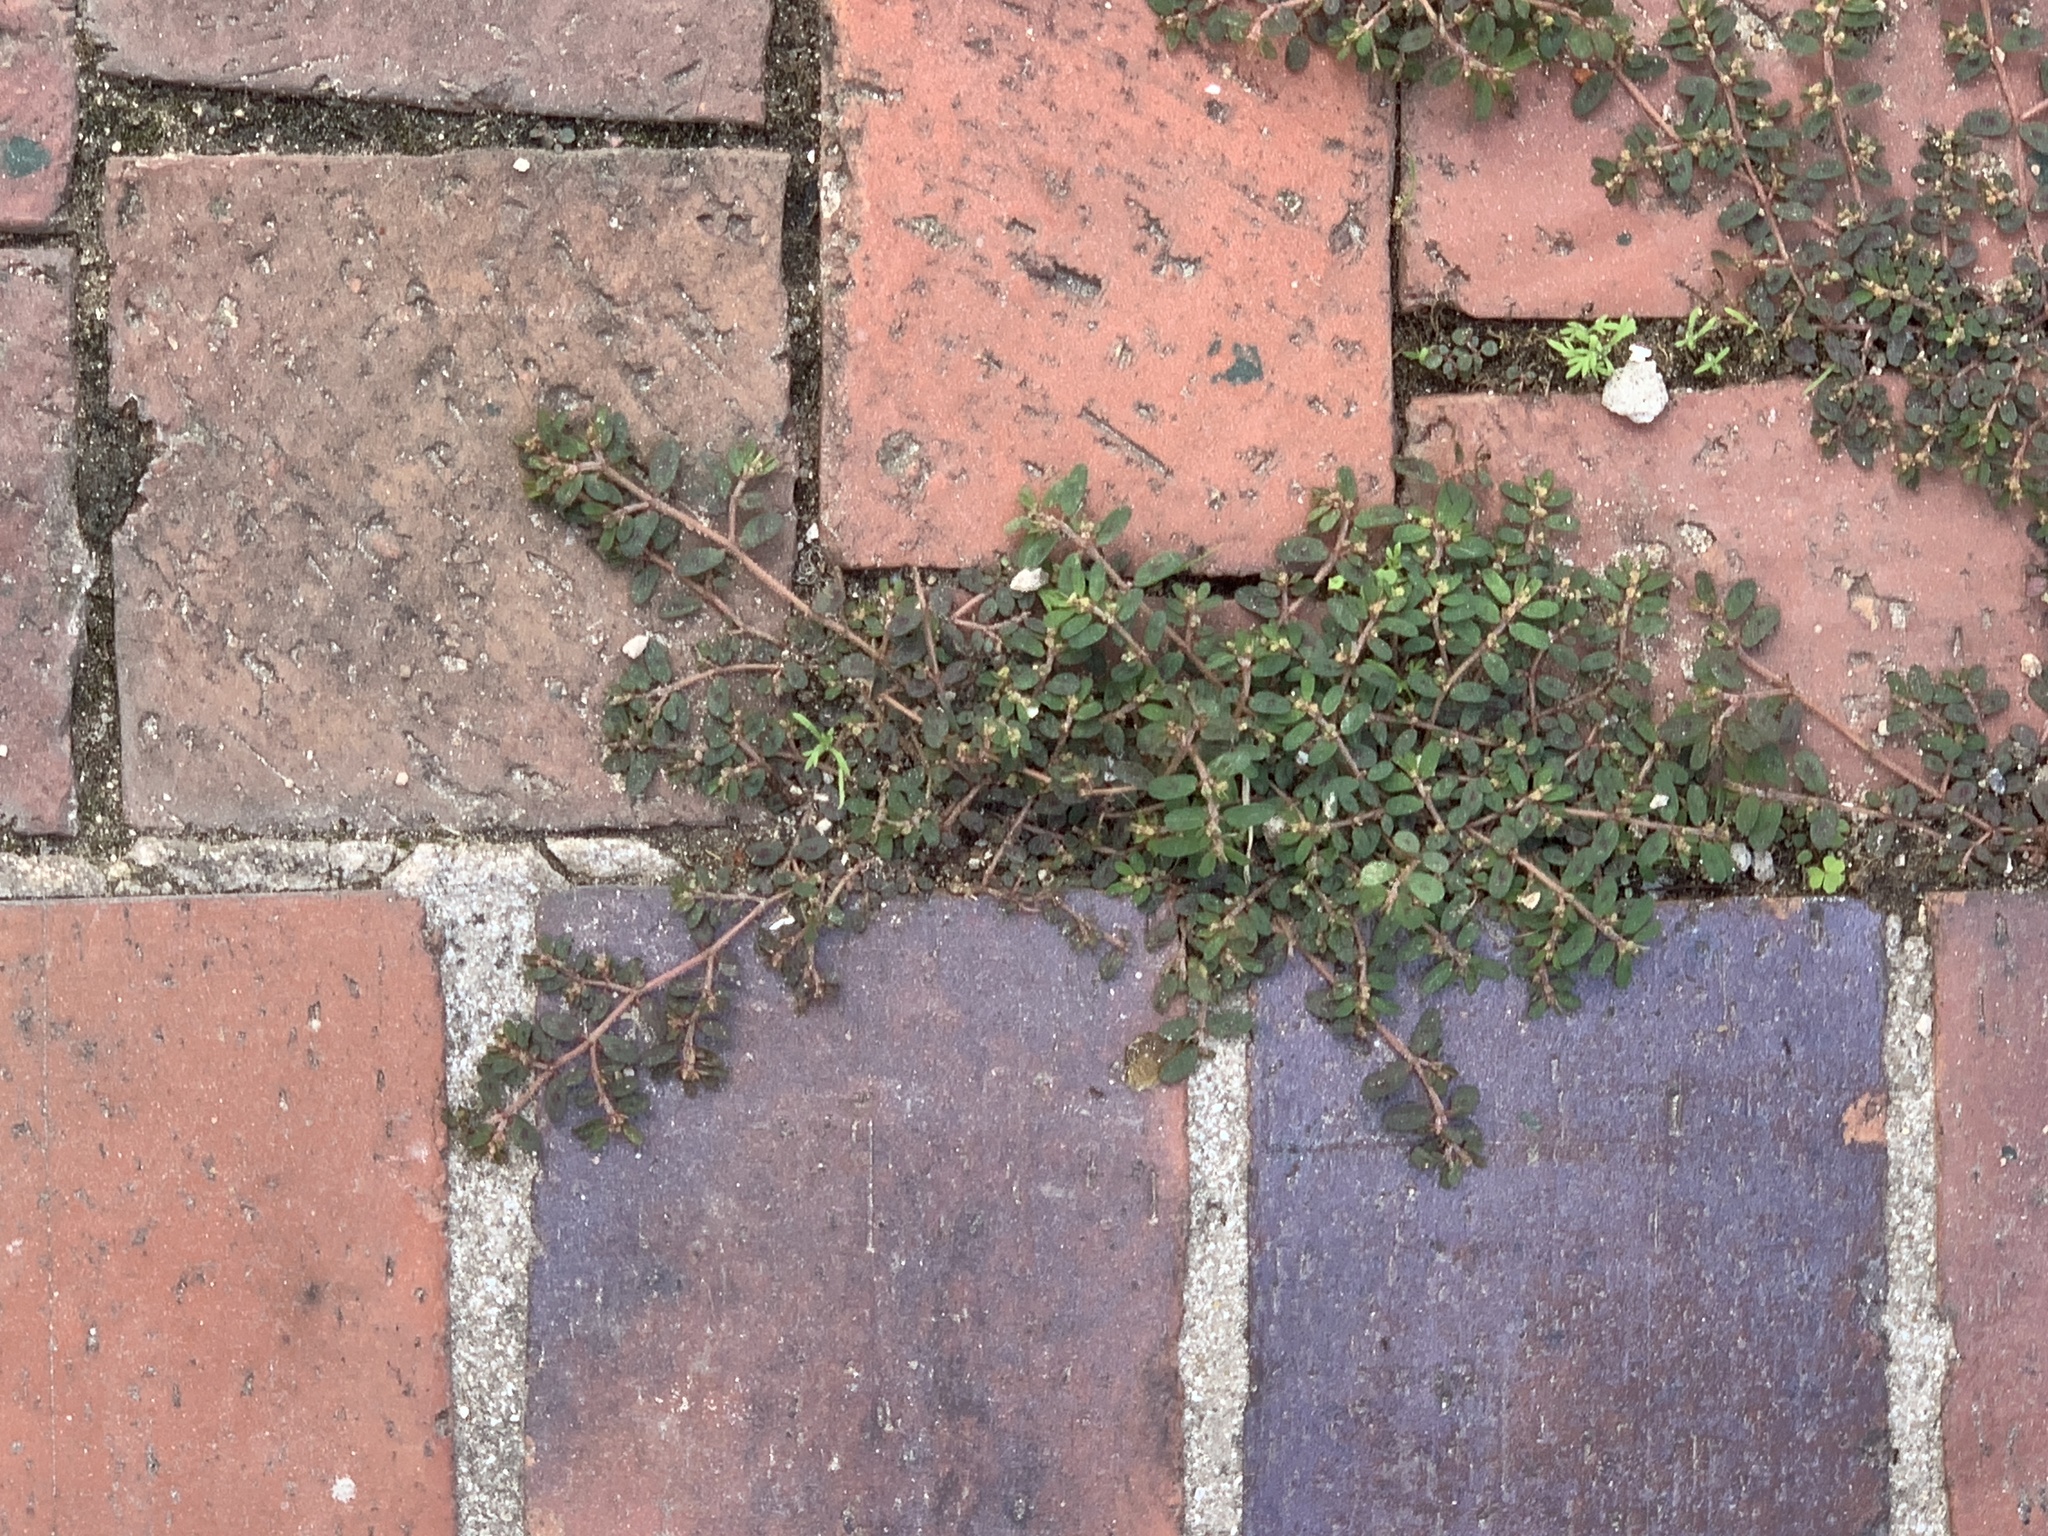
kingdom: Plantae
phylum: Tracheophyta
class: Magnoliopsida
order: Malpighiales
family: Euphorbiaceae
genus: Euphorbia
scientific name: Euphorbia maculata
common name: Spotted spurge
